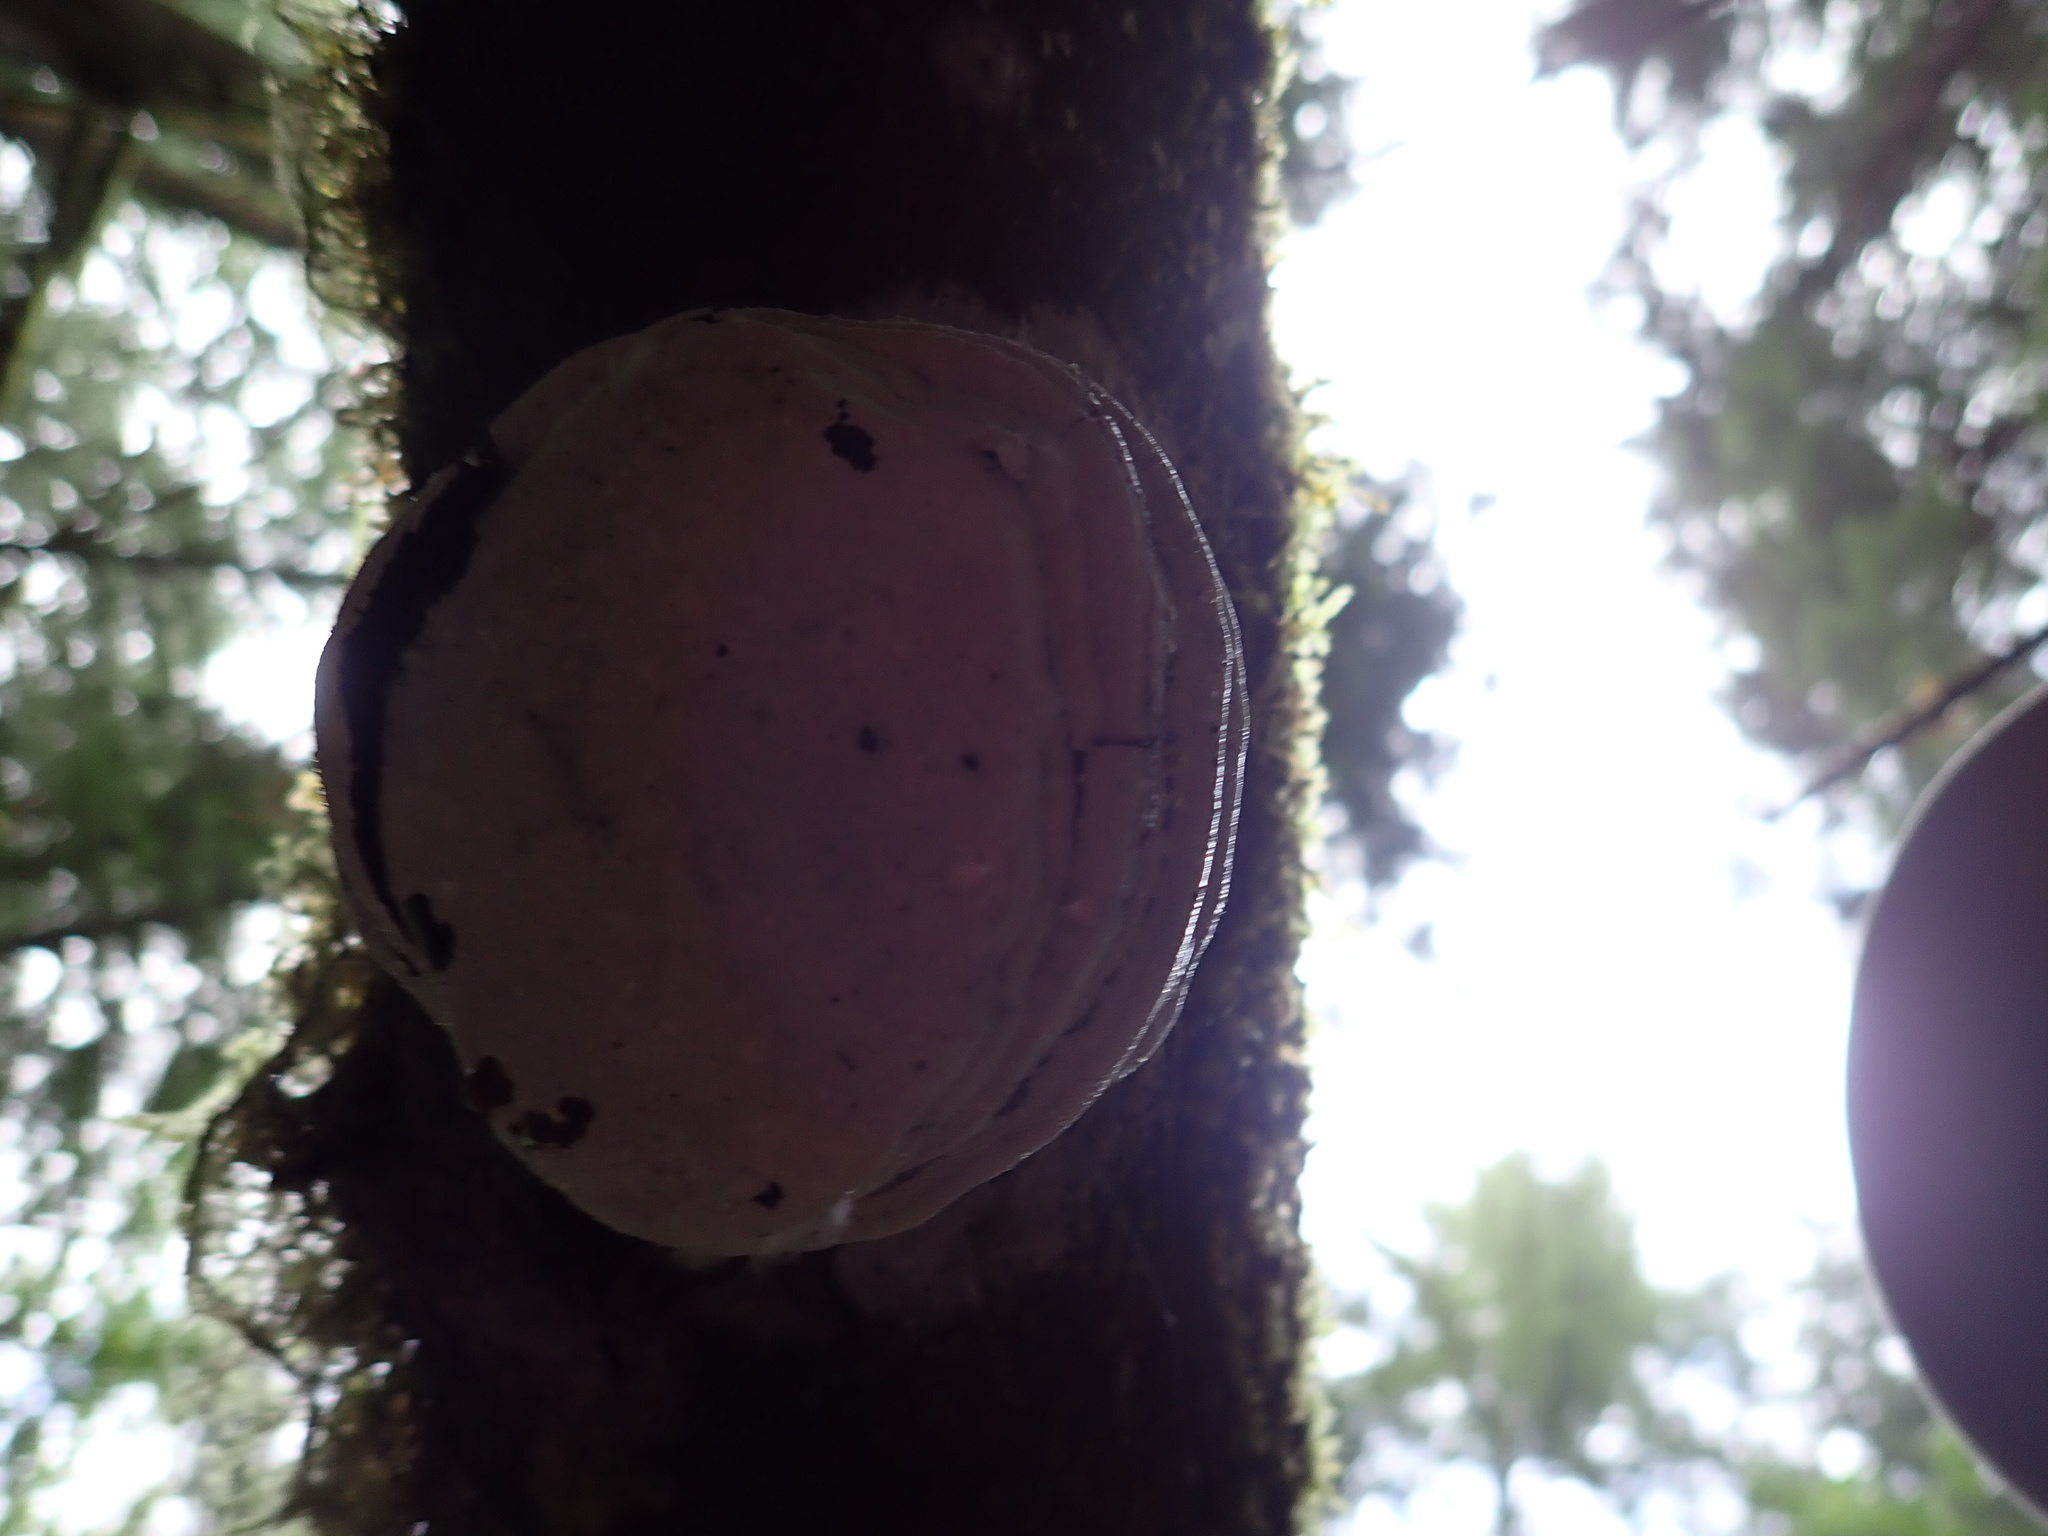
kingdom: Fungi
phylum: Basidiomycota
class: Agaricomycetes
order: Polyporales
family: Polyporaceae
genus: Fomes
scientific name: Fomes fomentarius
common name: Hoof fungus
